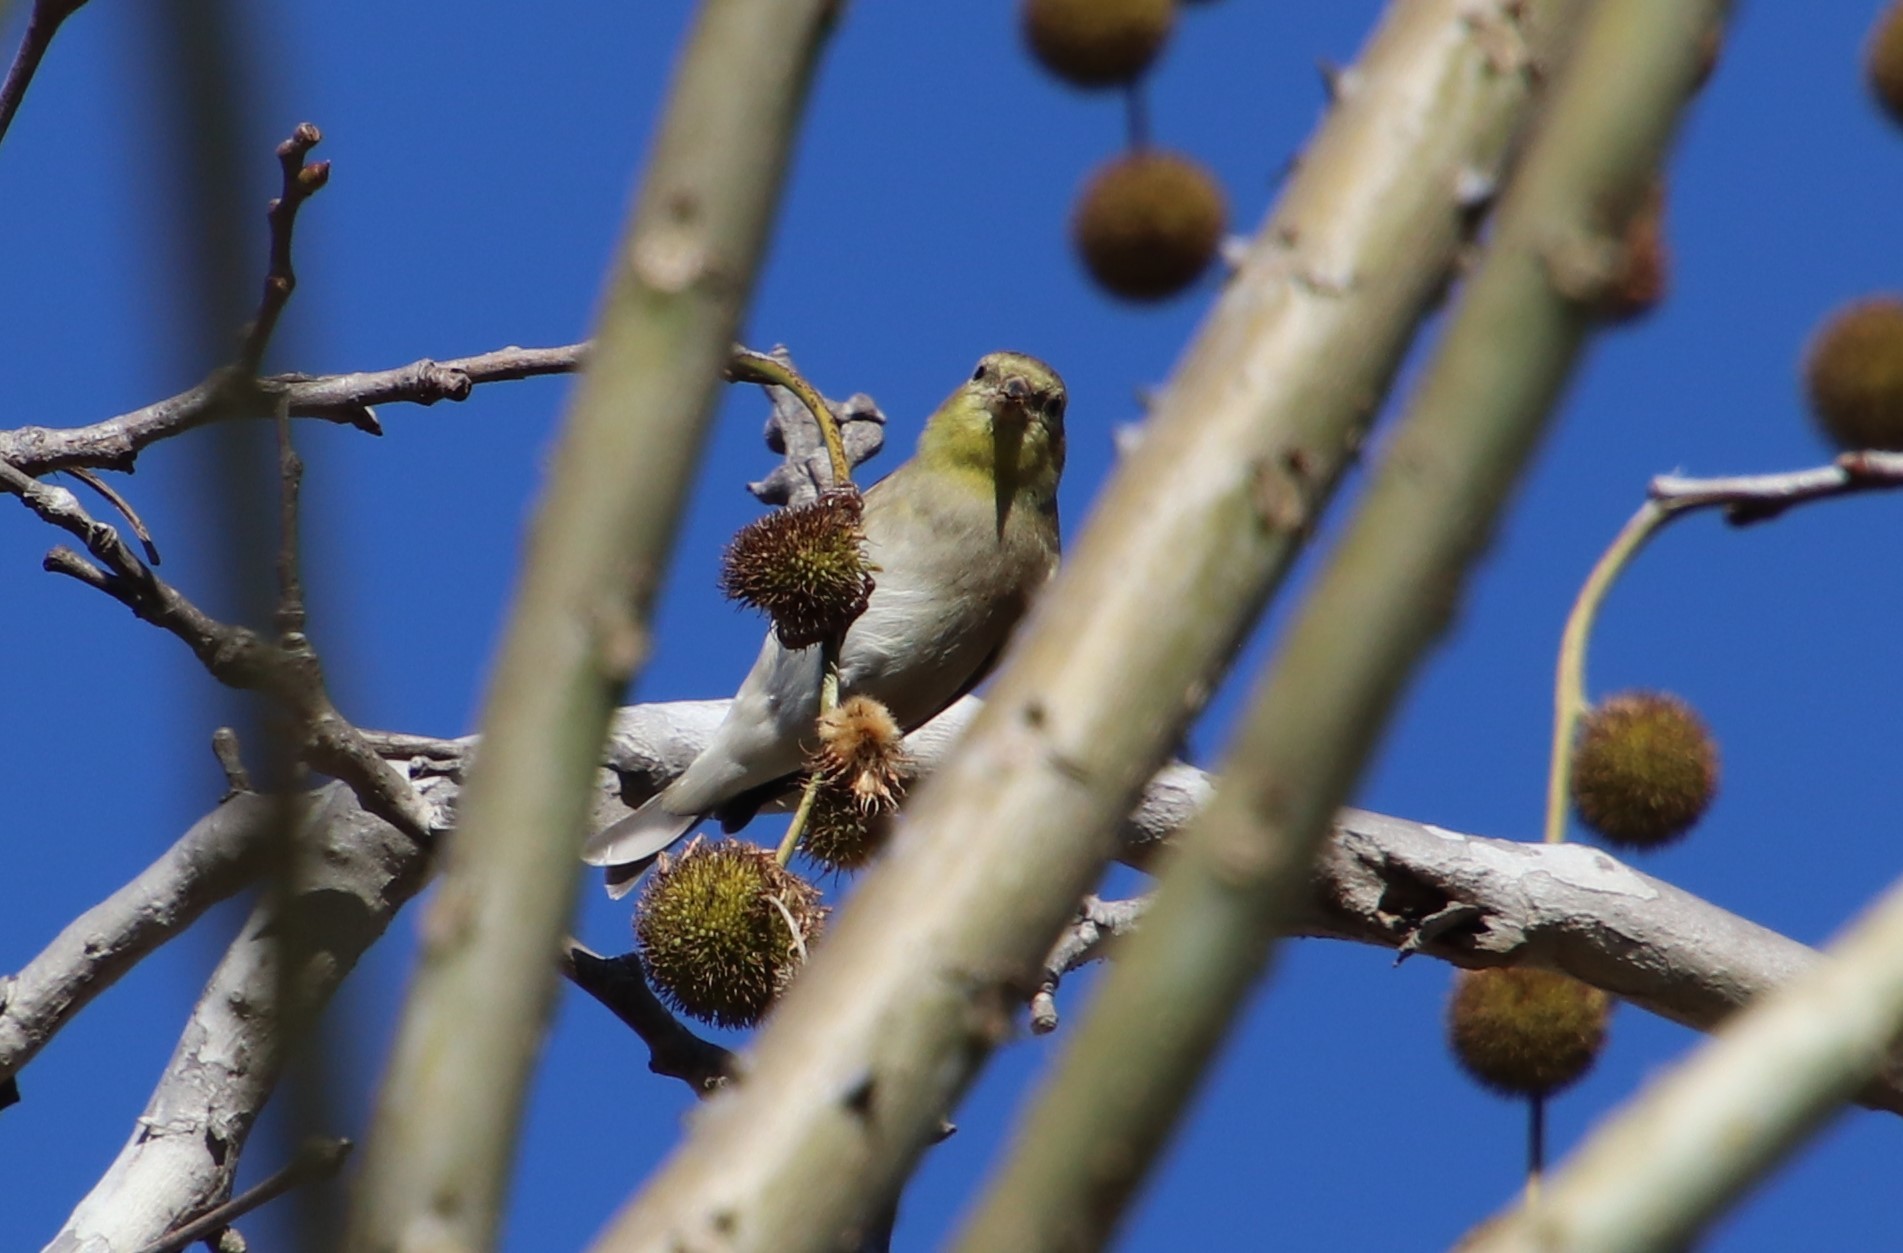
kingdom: Animalia
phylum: Chordata
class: Aves
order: Passeriformes
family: Fringillidae
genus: Spinus
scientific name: Spinus tristis
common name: American goldfinch
